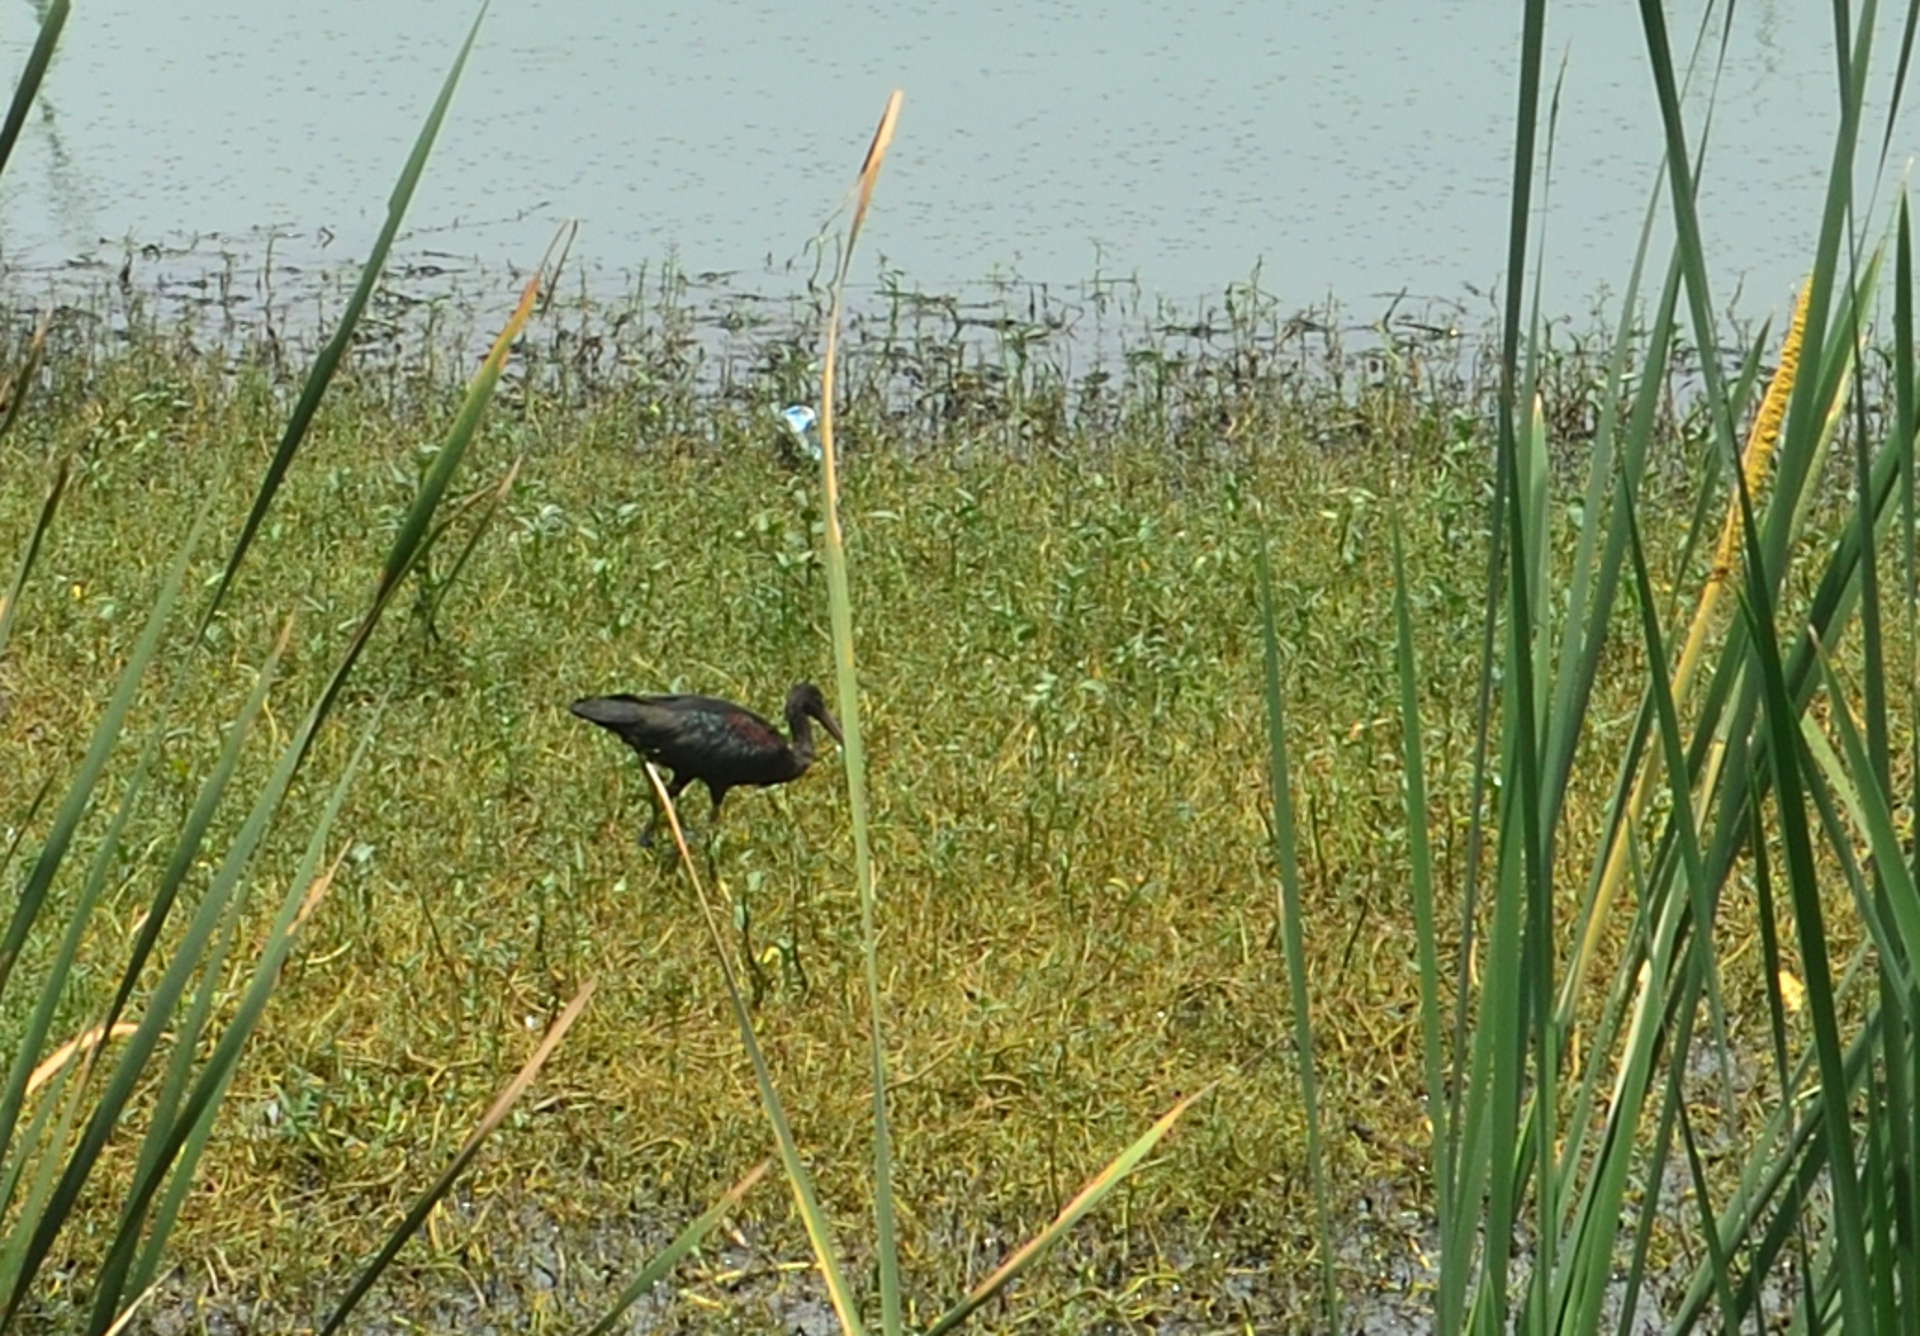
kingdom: Animalia
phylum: Chordata
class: Aves
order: Pelecaniformes
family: Threskiornithidae
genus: Plegadis
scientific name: Plegadis falcinellus
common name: Glossy ibis
